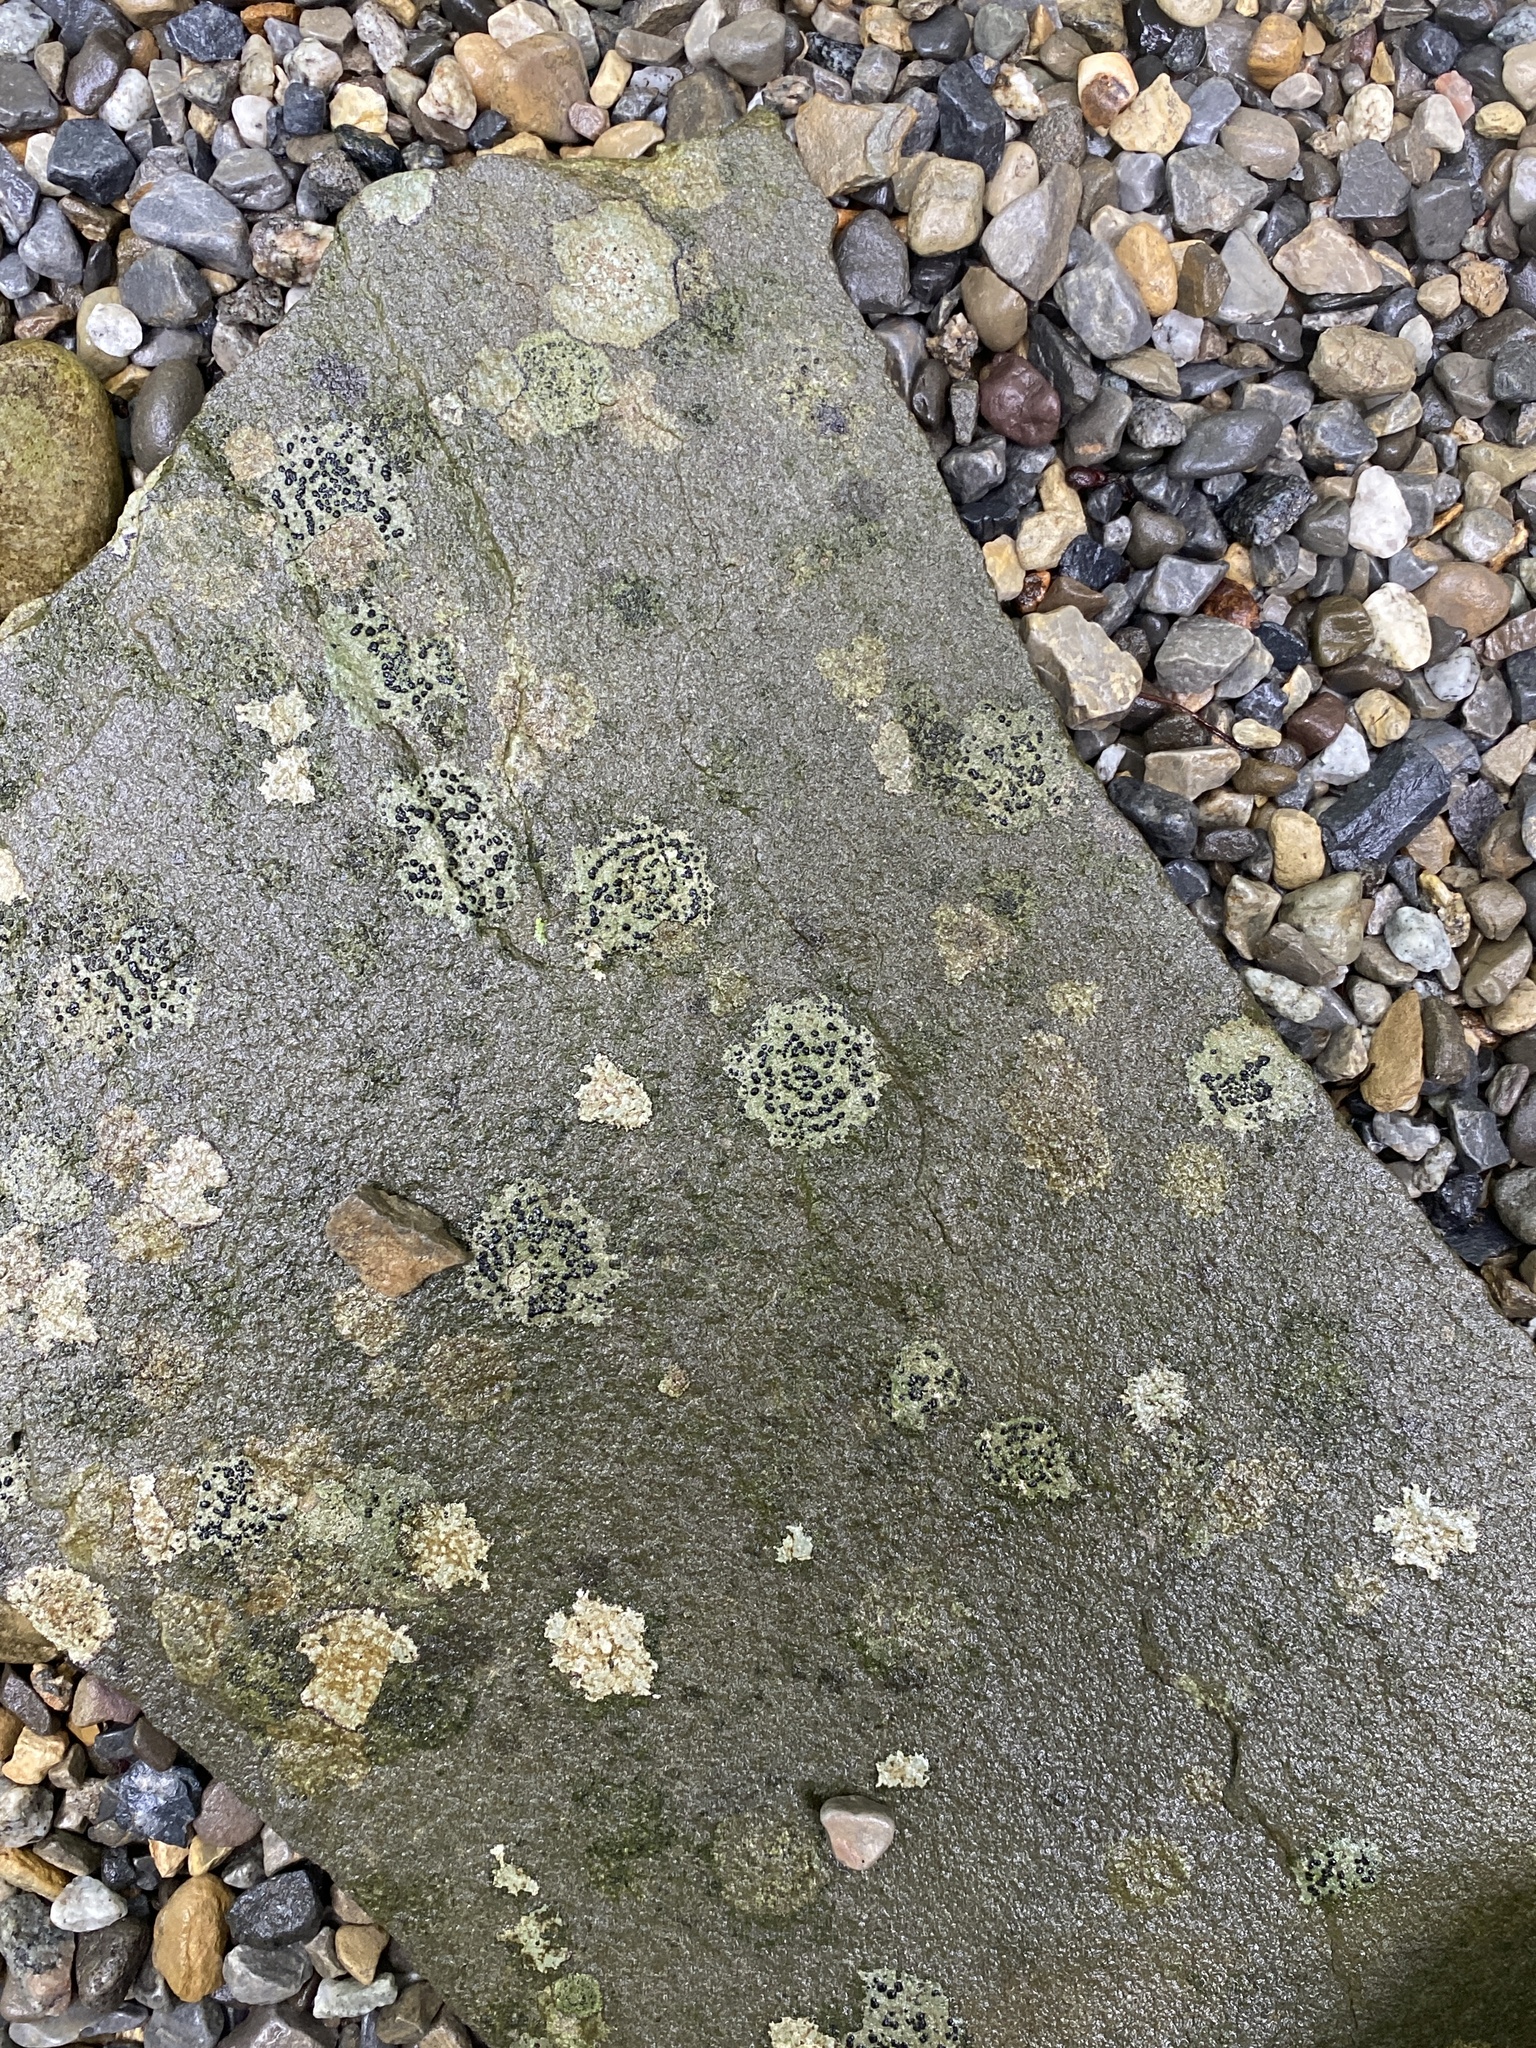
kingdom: Fungi
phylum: Ascomycota
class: Lecanoromycetes
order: Lecideales
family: Lecideaceae
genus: Porpidia
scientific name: Porpidia crustulata
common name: Concentric boulder lichen
